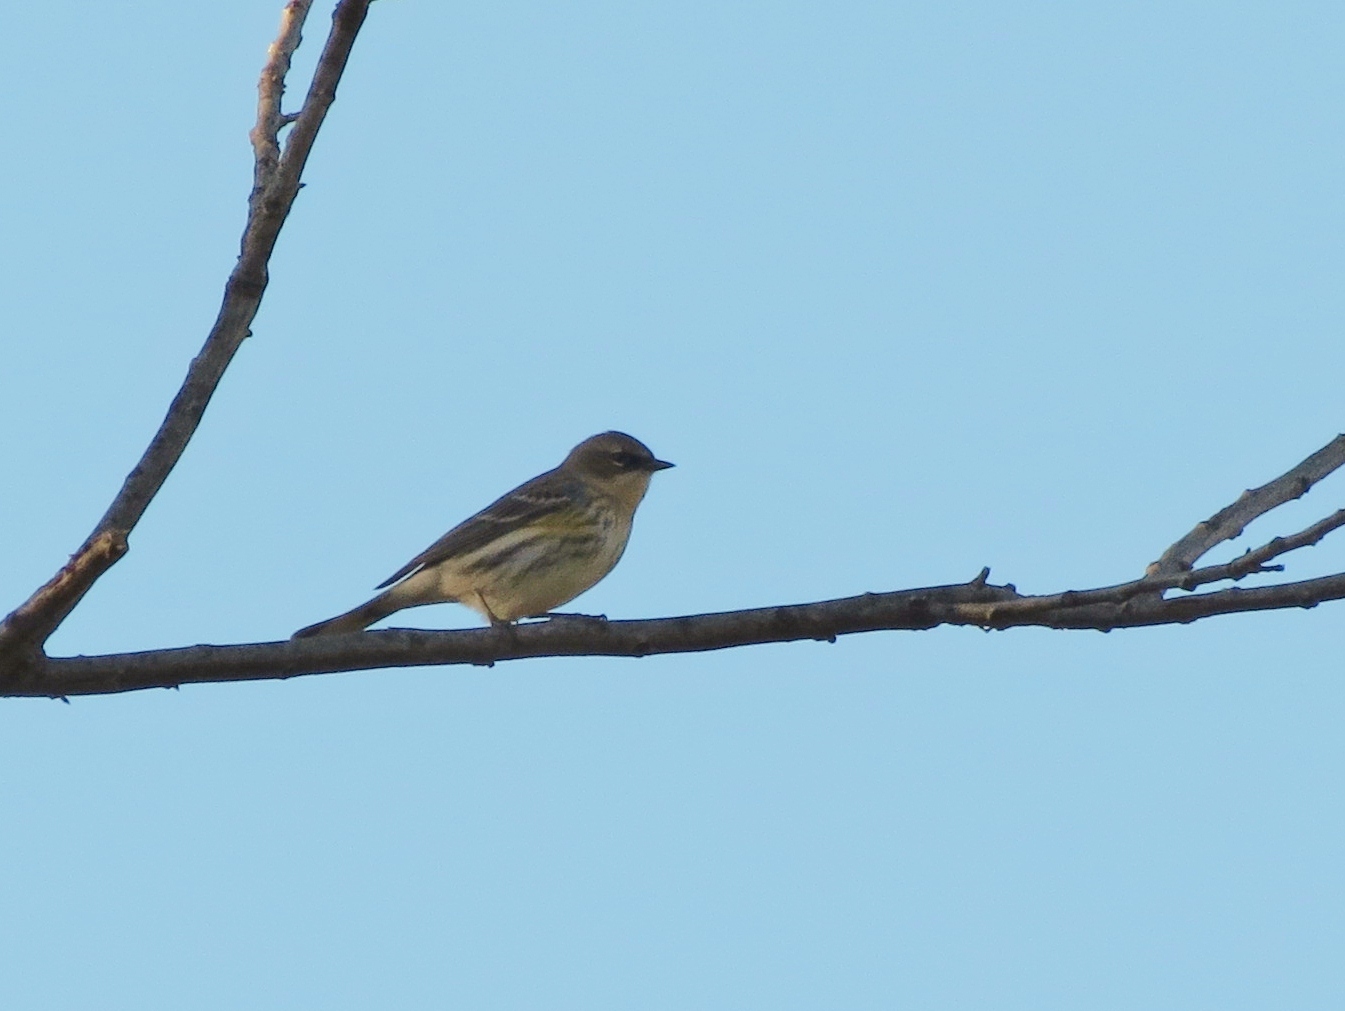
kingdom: Animalia
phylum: Chordata
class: Aves
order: Passeriformes
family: Parulidae
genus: Setophaga
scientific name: Setophaga coronata
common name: Myrtle warbler
